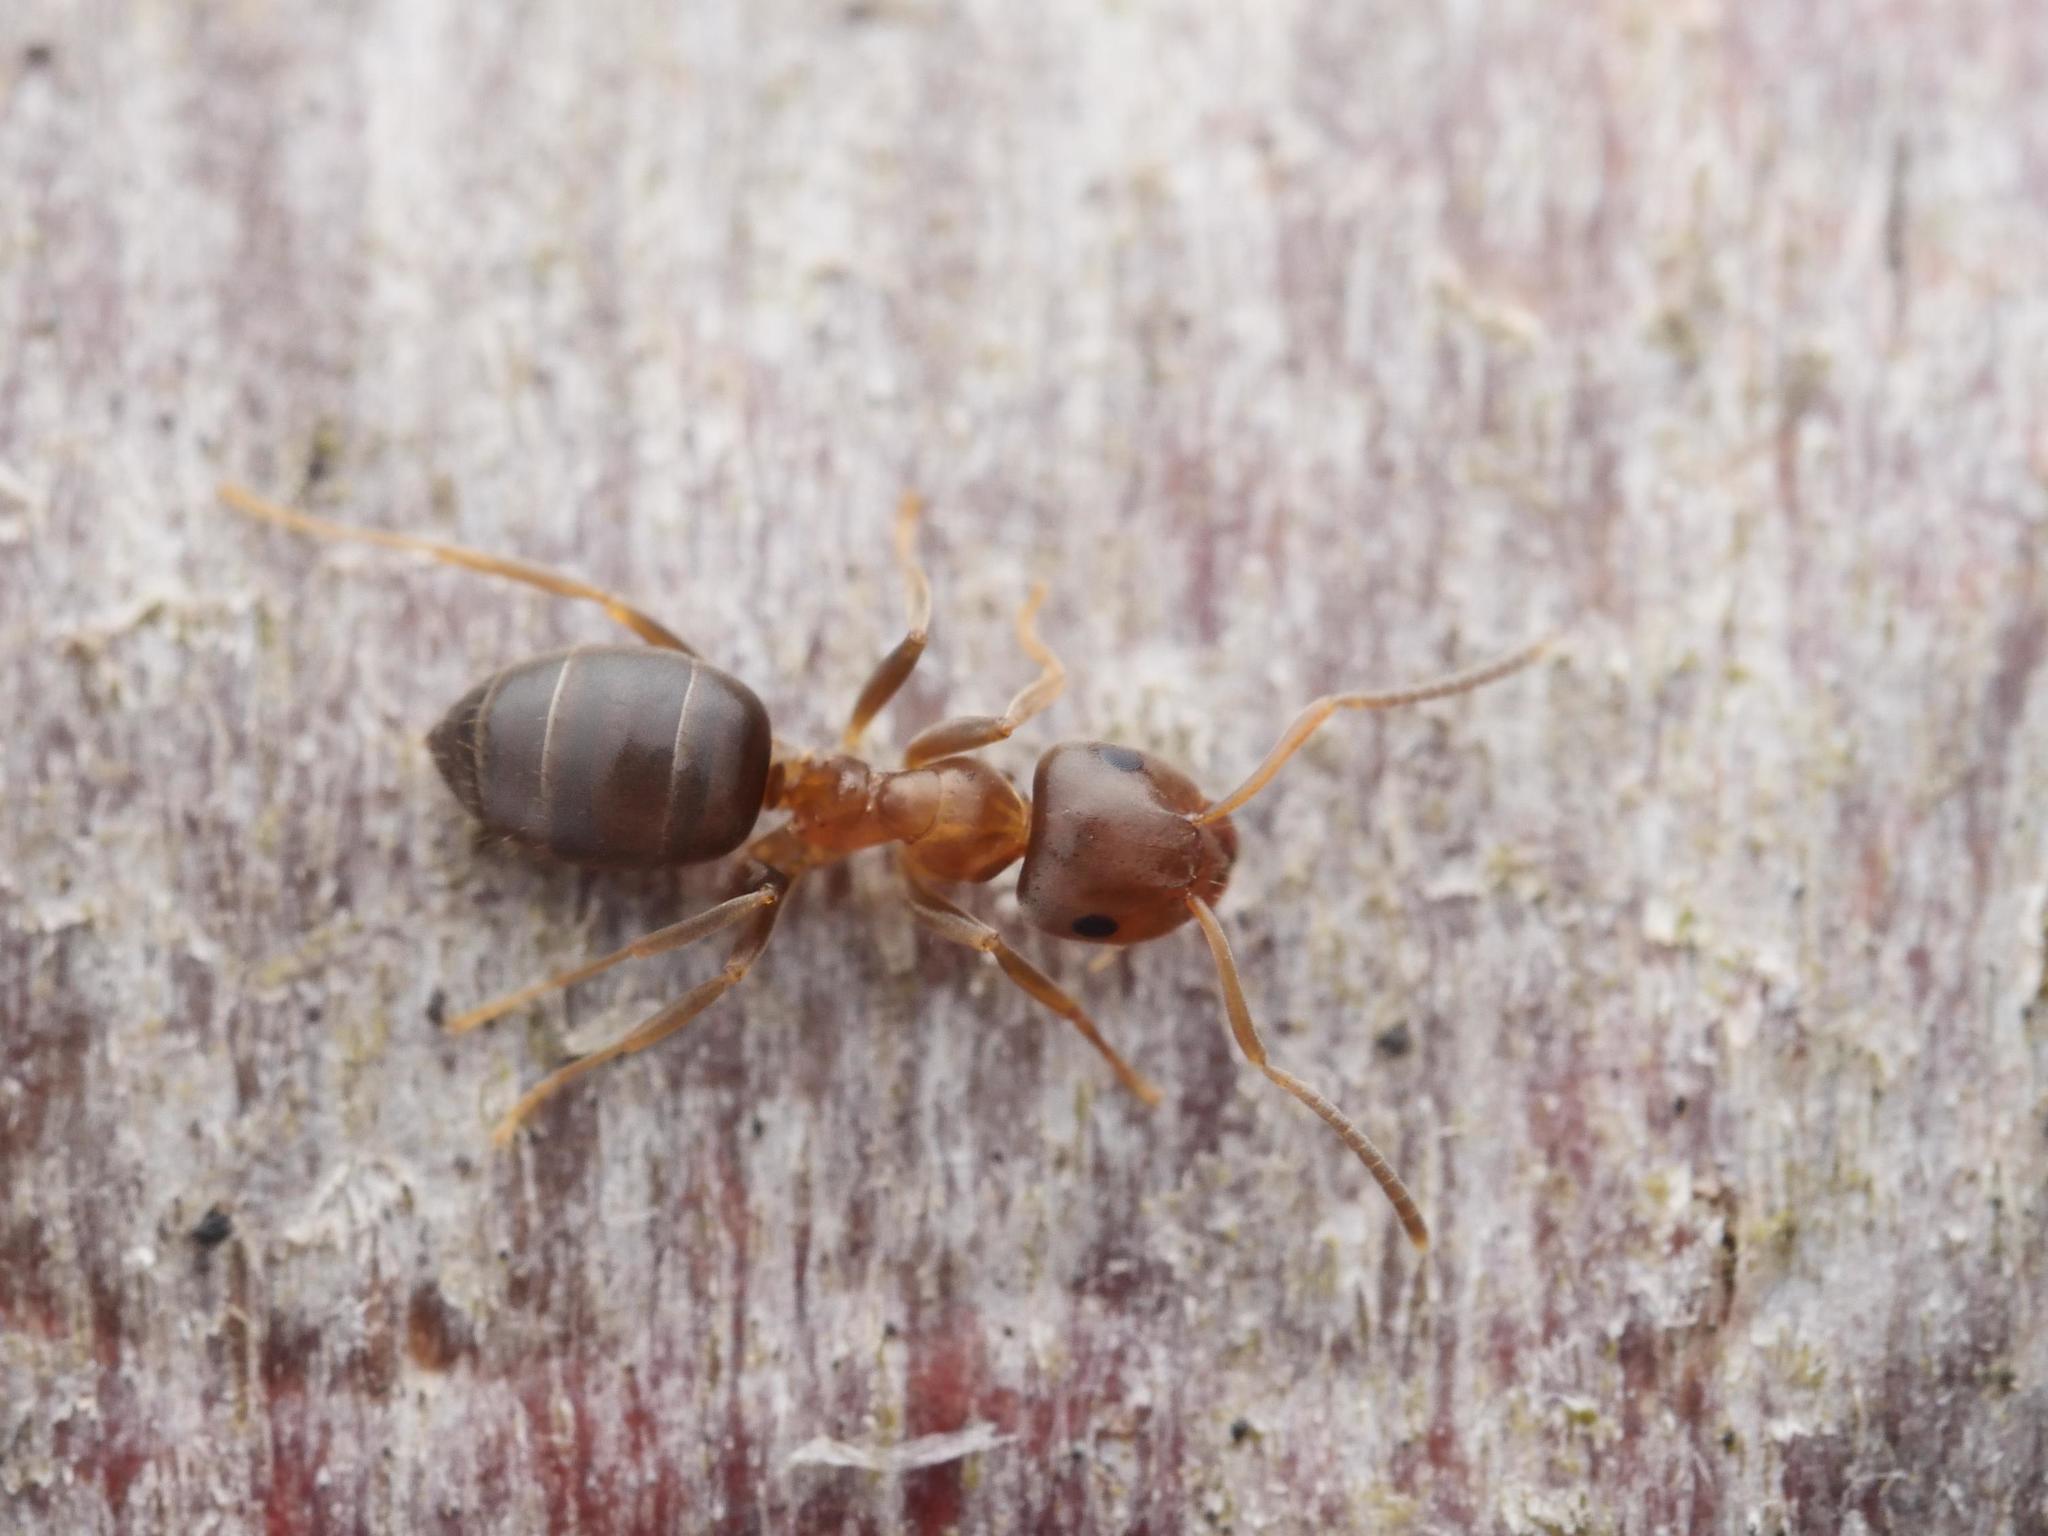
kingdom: Animalia
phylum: Arthropoda
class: Insecta
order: Hymenoptera
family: Formicidae
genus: Lasius
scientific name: Lasius brunneus
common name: Brown ant
